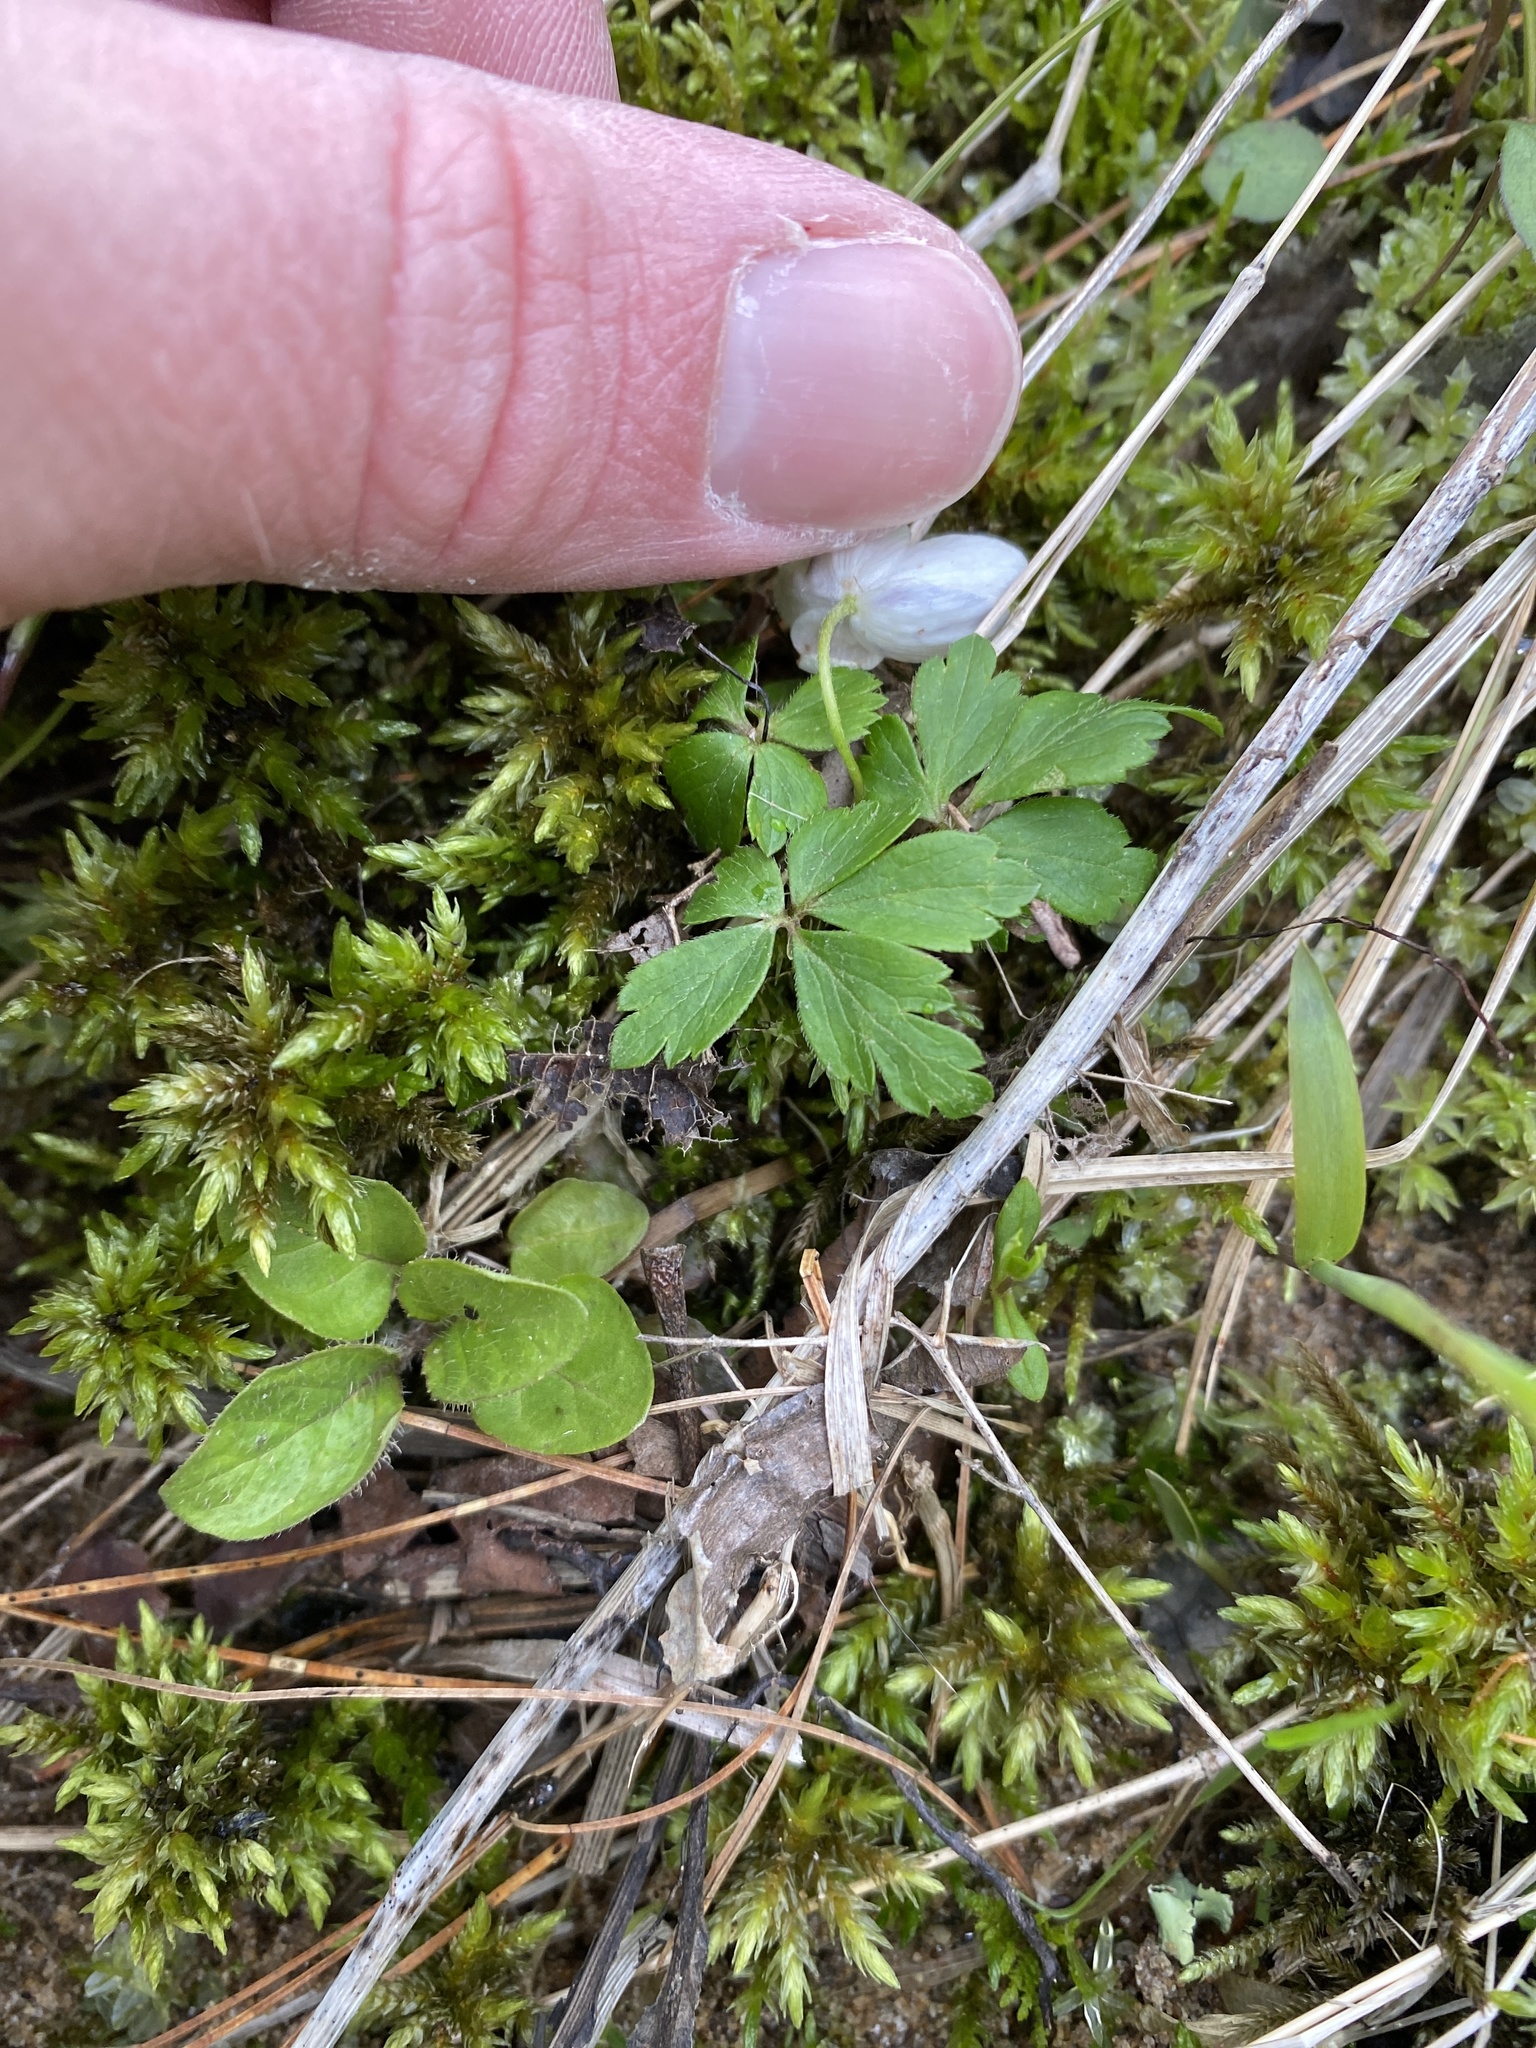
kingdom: Plantae
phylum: Tracheophyta
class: Magnoliopsida
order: Ranunculales
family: Ranunculaceae
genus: Anemone
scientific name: Anemone quinquefolia
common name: Wood anemone
